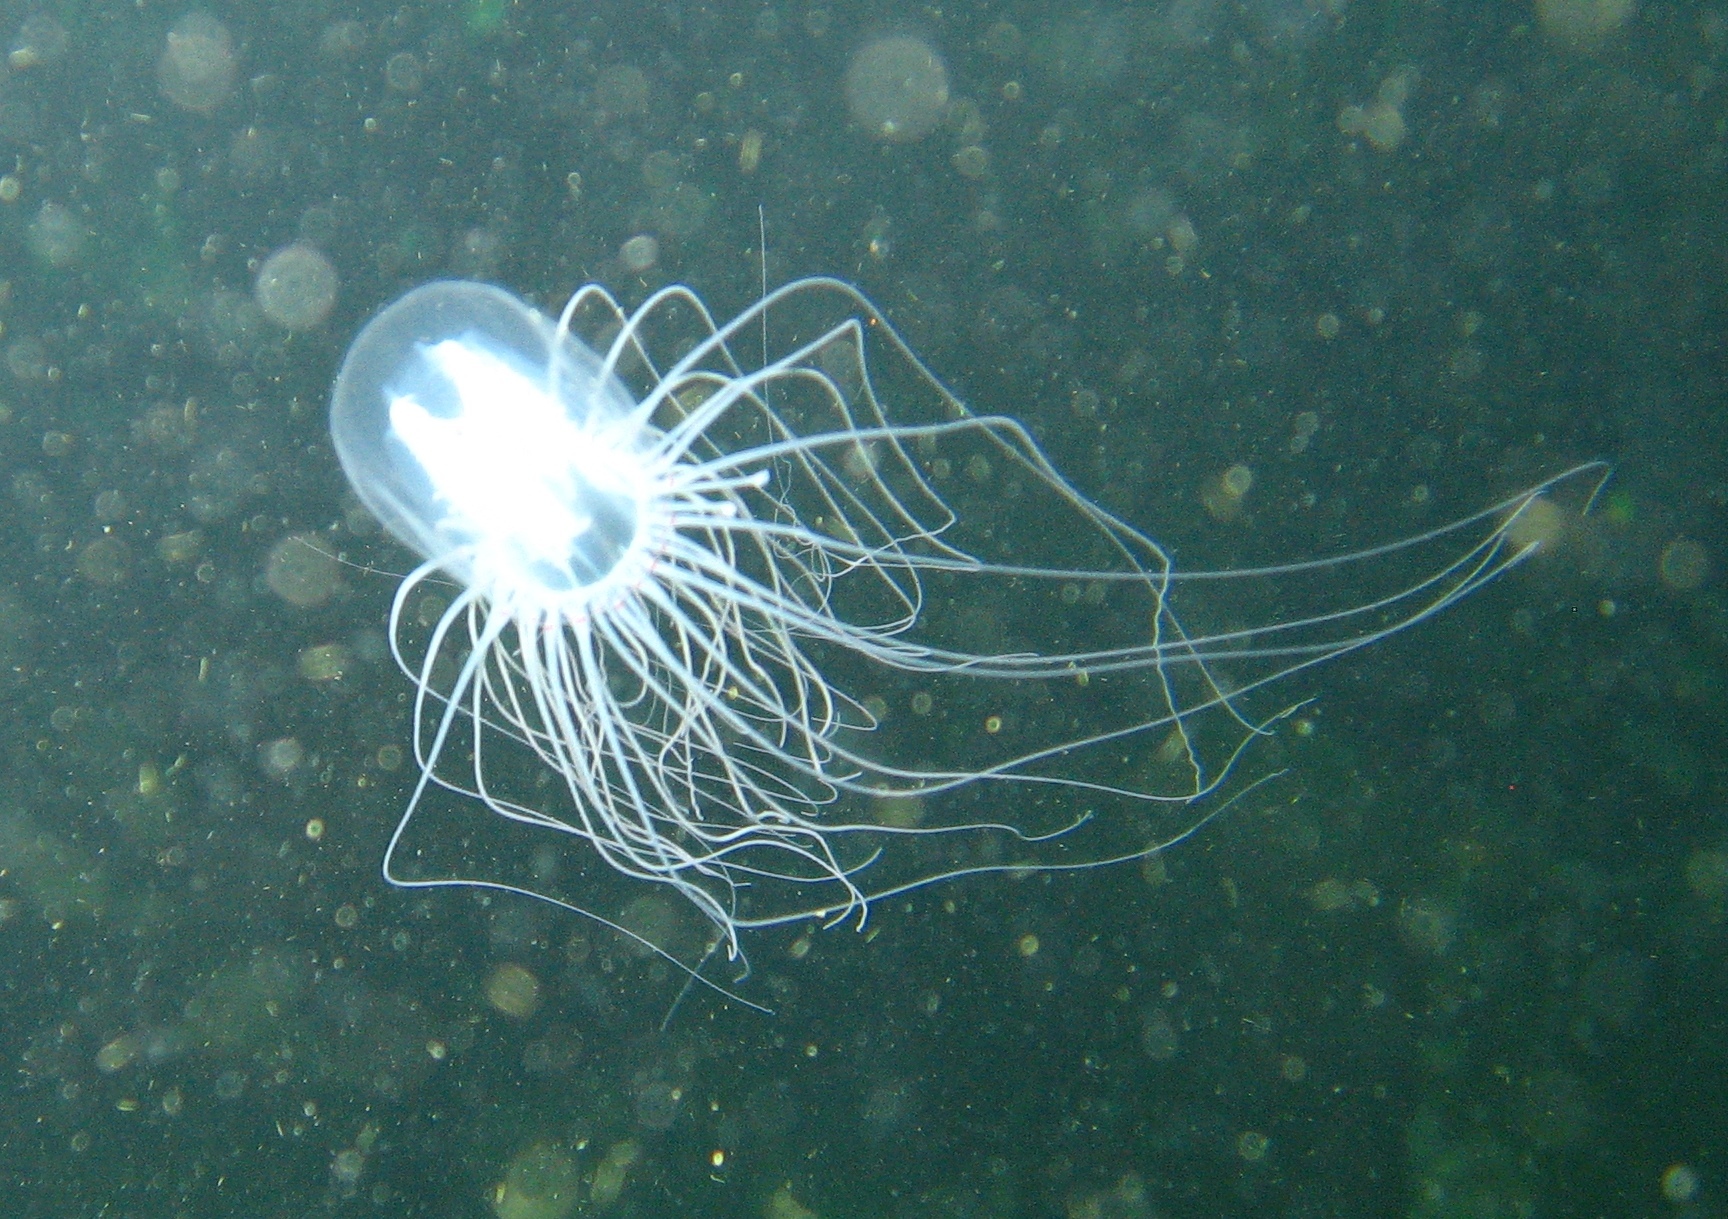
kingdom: Animalia
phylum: Cnidaria
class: Hydrozoa
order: Anthoathecata
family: Corynidae
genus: Polyorchis
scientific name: Polyorchis penicillatus
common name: Penicillate jellyfish
